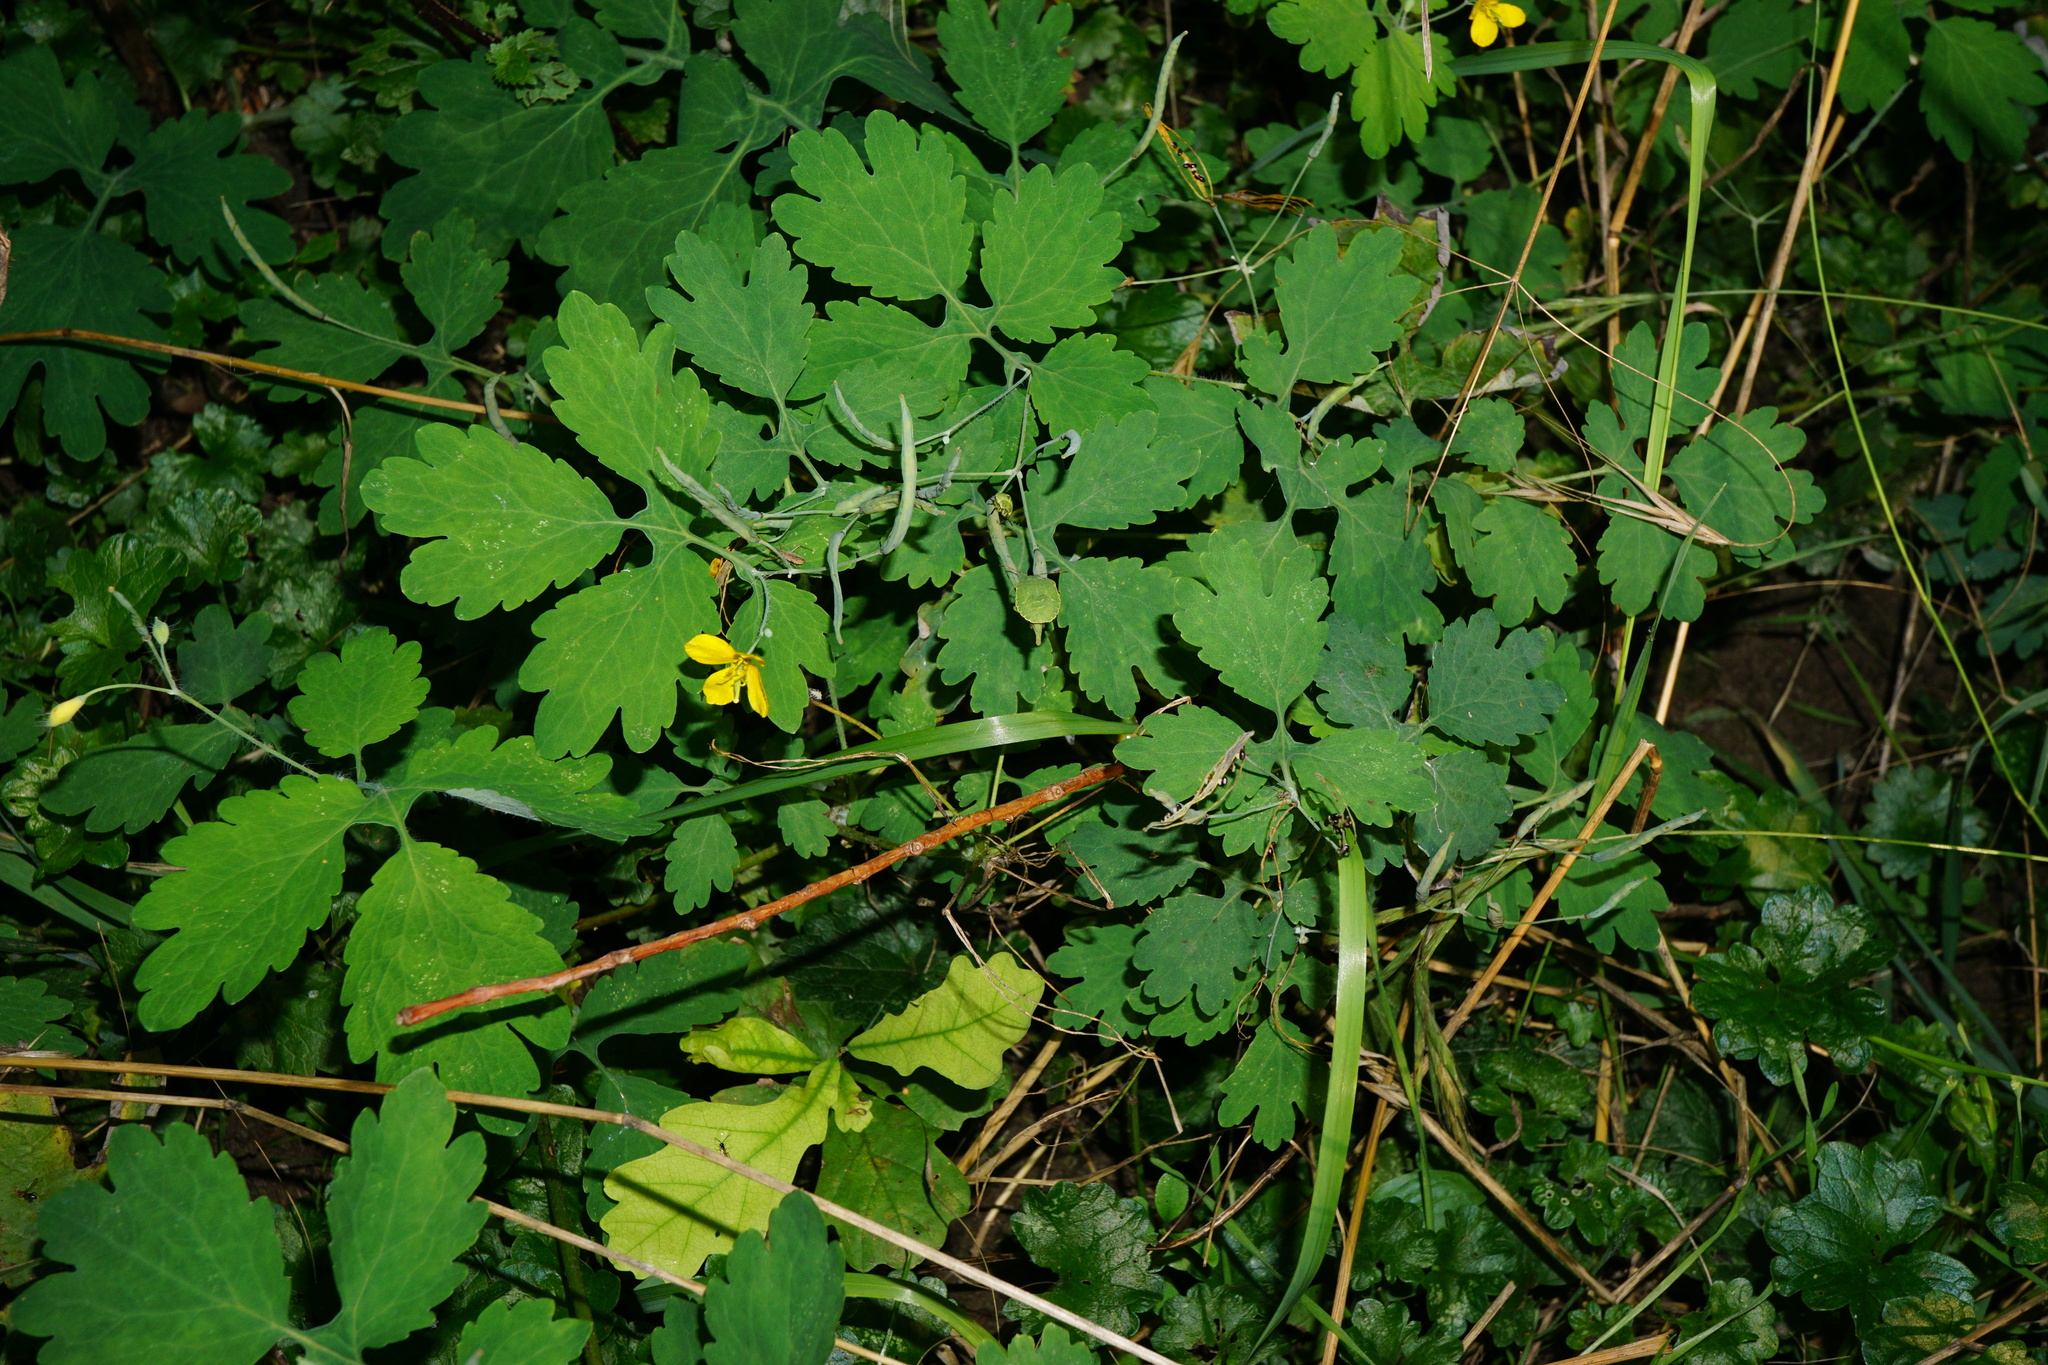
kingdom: Plantae
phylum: Tracheophyta
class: Magnoliopsida
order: Ranunculales
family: Papaveraceae
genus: Chelidonium
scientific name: Chelidonium majus
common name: Greater celandine
